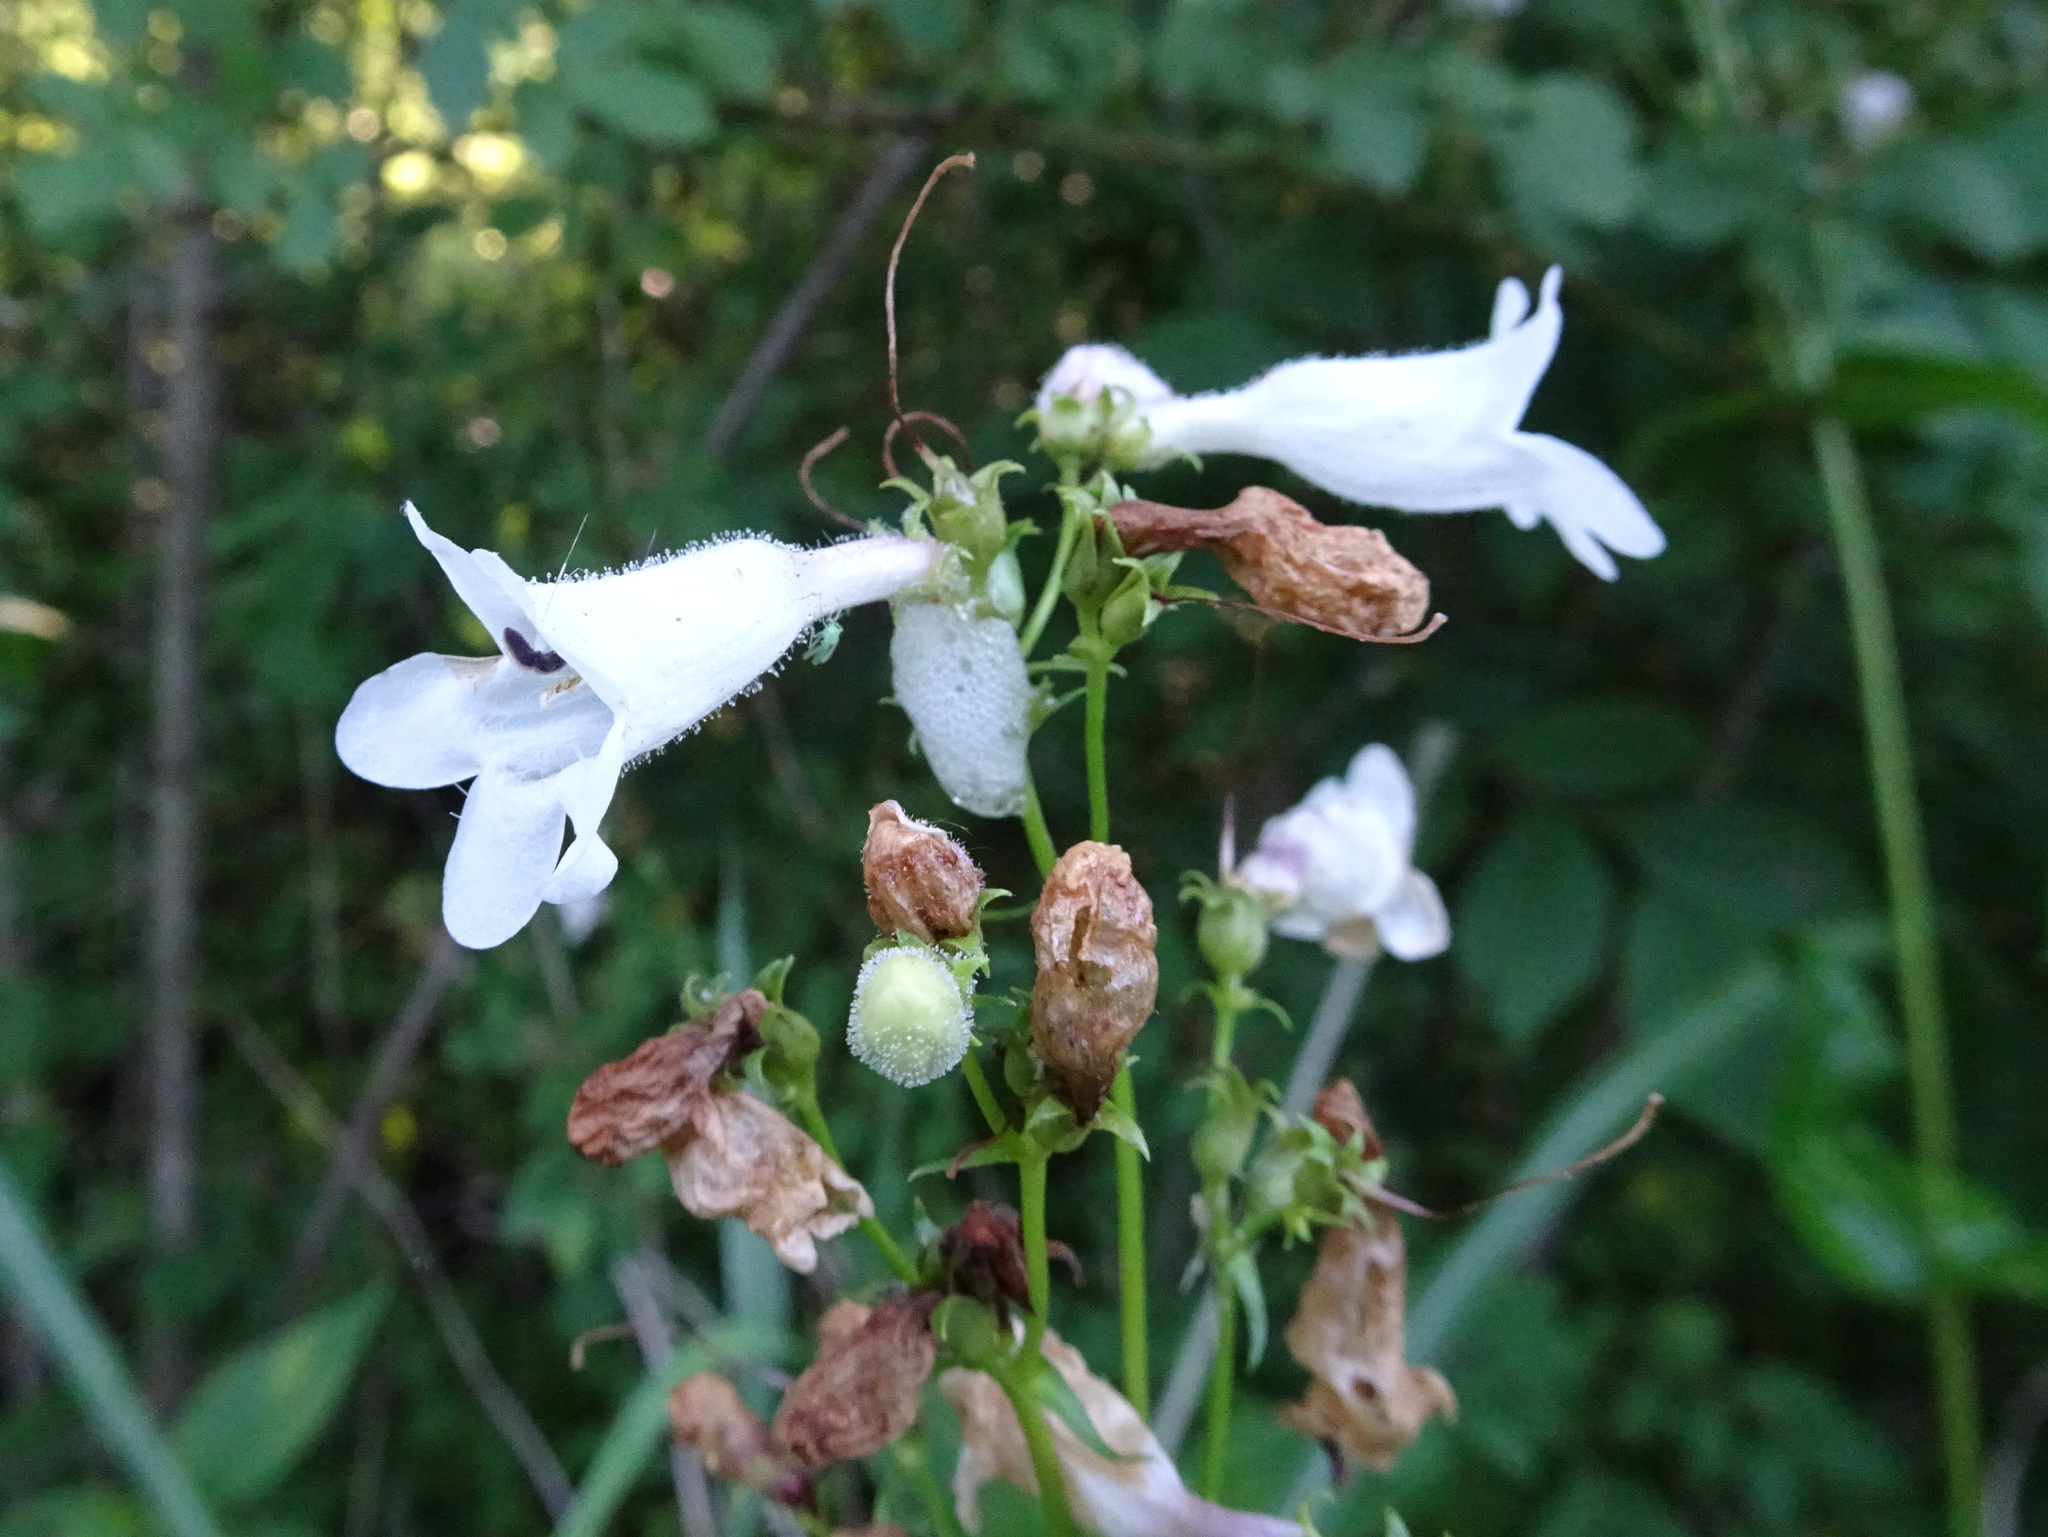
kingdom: Plantae
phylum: Tracheophyta
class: Magnoliopsida
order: Lamiales
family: Plantaginaceae
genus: Penstemon
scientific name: Penstemon digitalis
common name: Foxglove beardtongue
